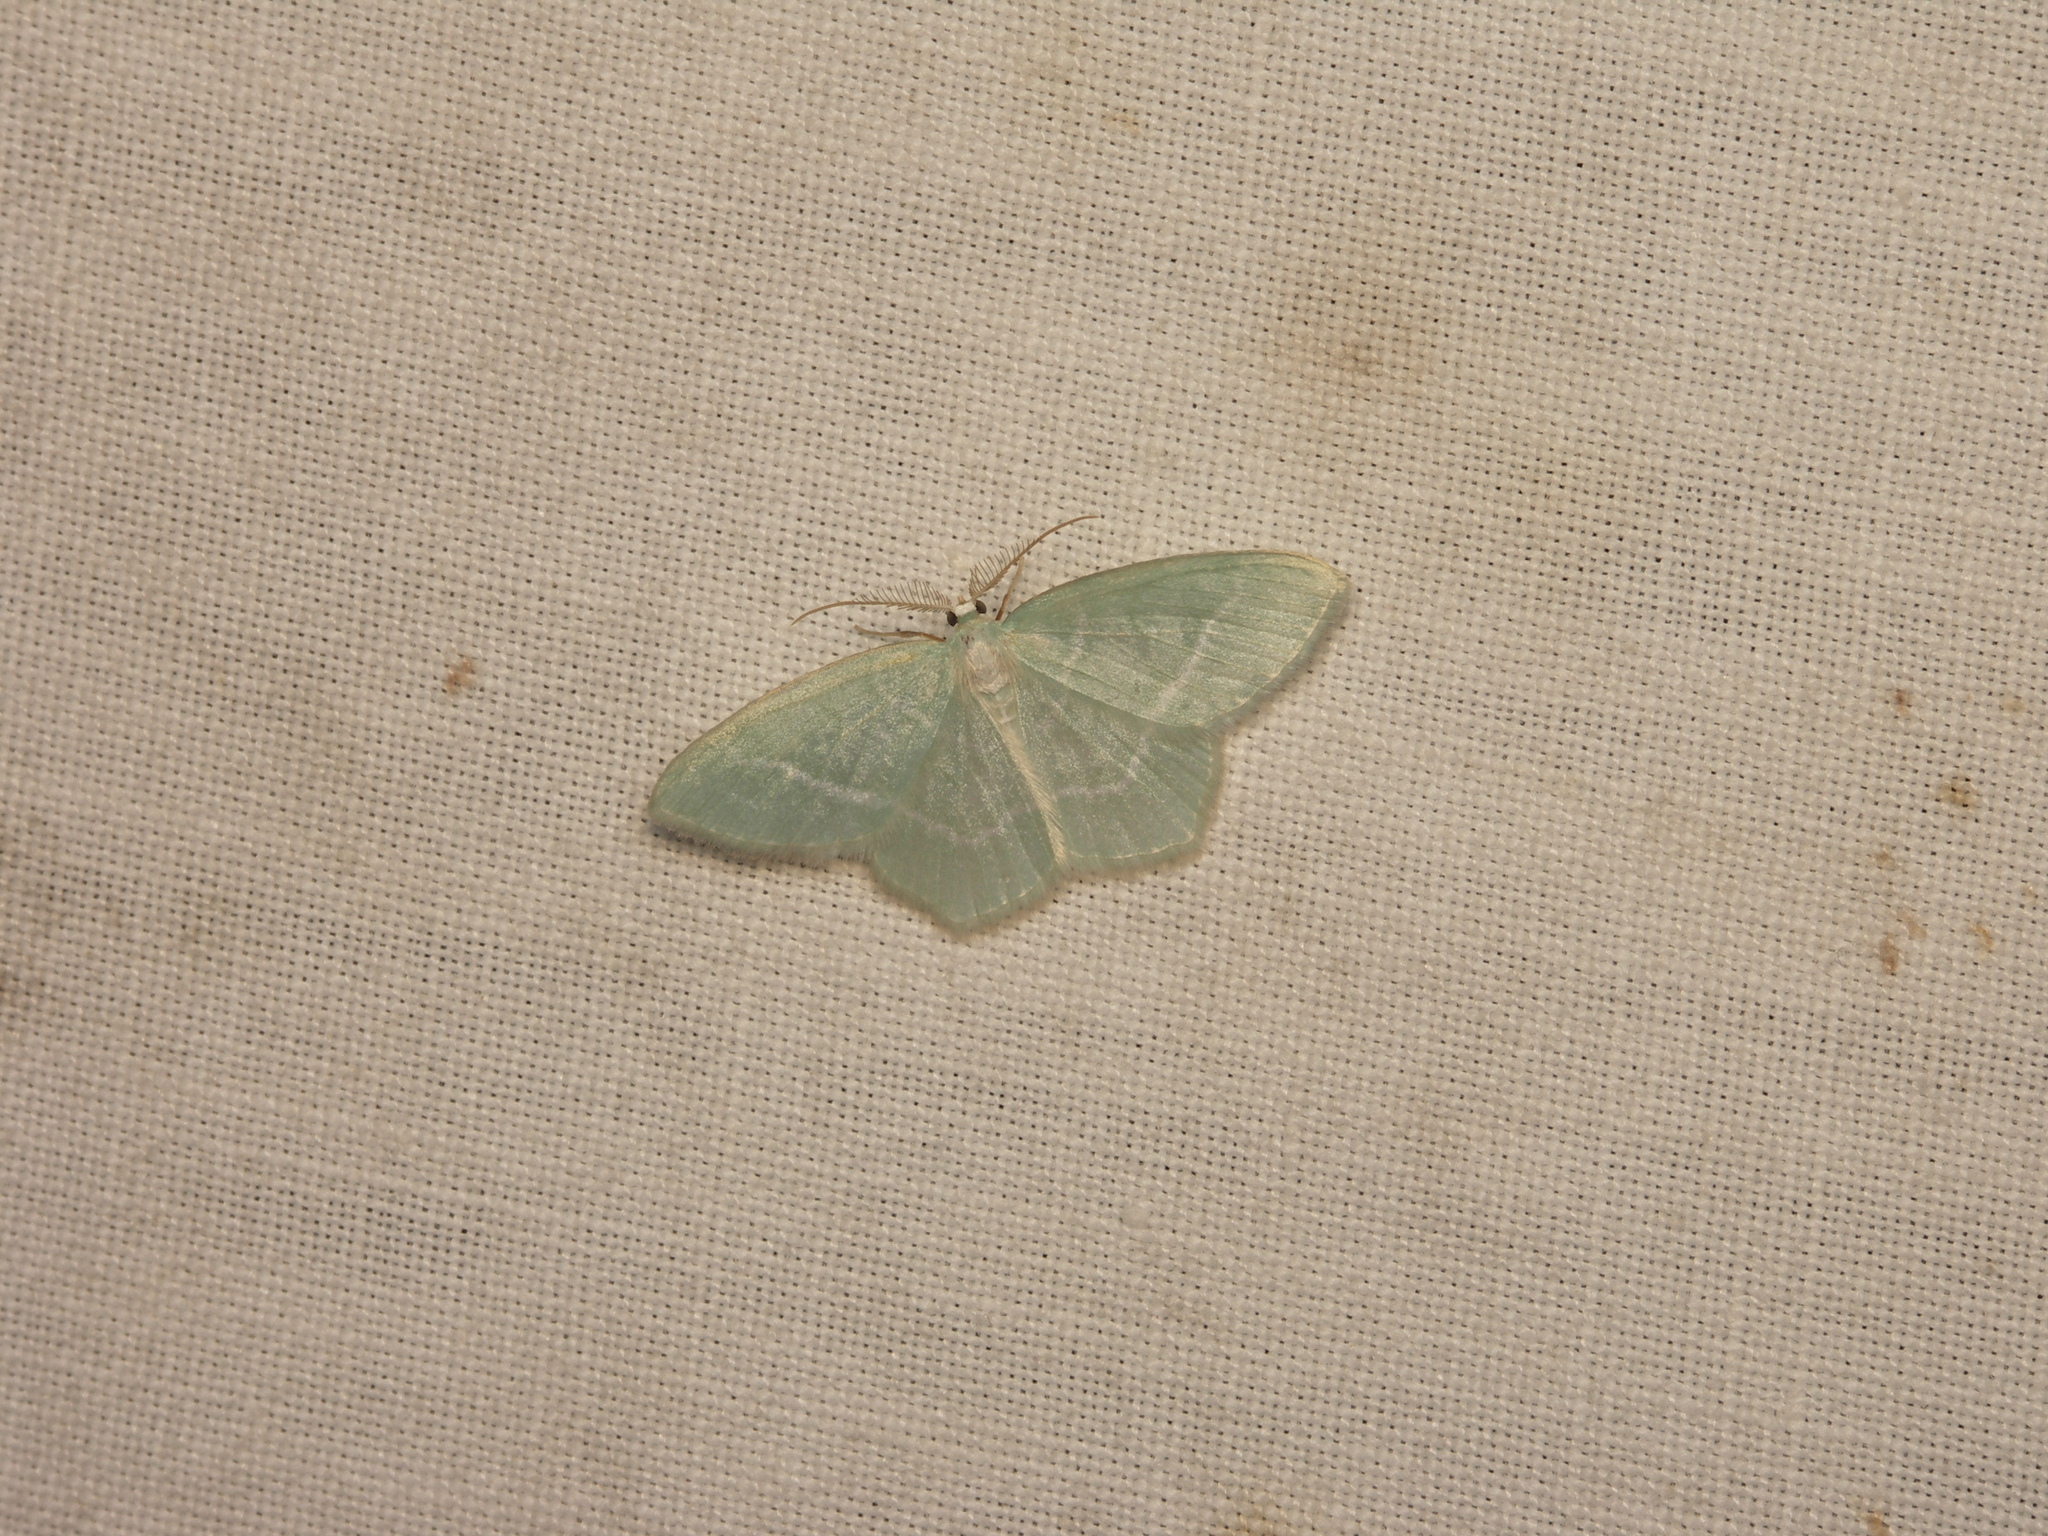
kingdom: Animalia
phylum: Arthropoda
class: Insecta
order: Lepidoptera
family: Geometridae
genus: Jodis
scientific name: Jodis lactearia
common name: Little emerald
